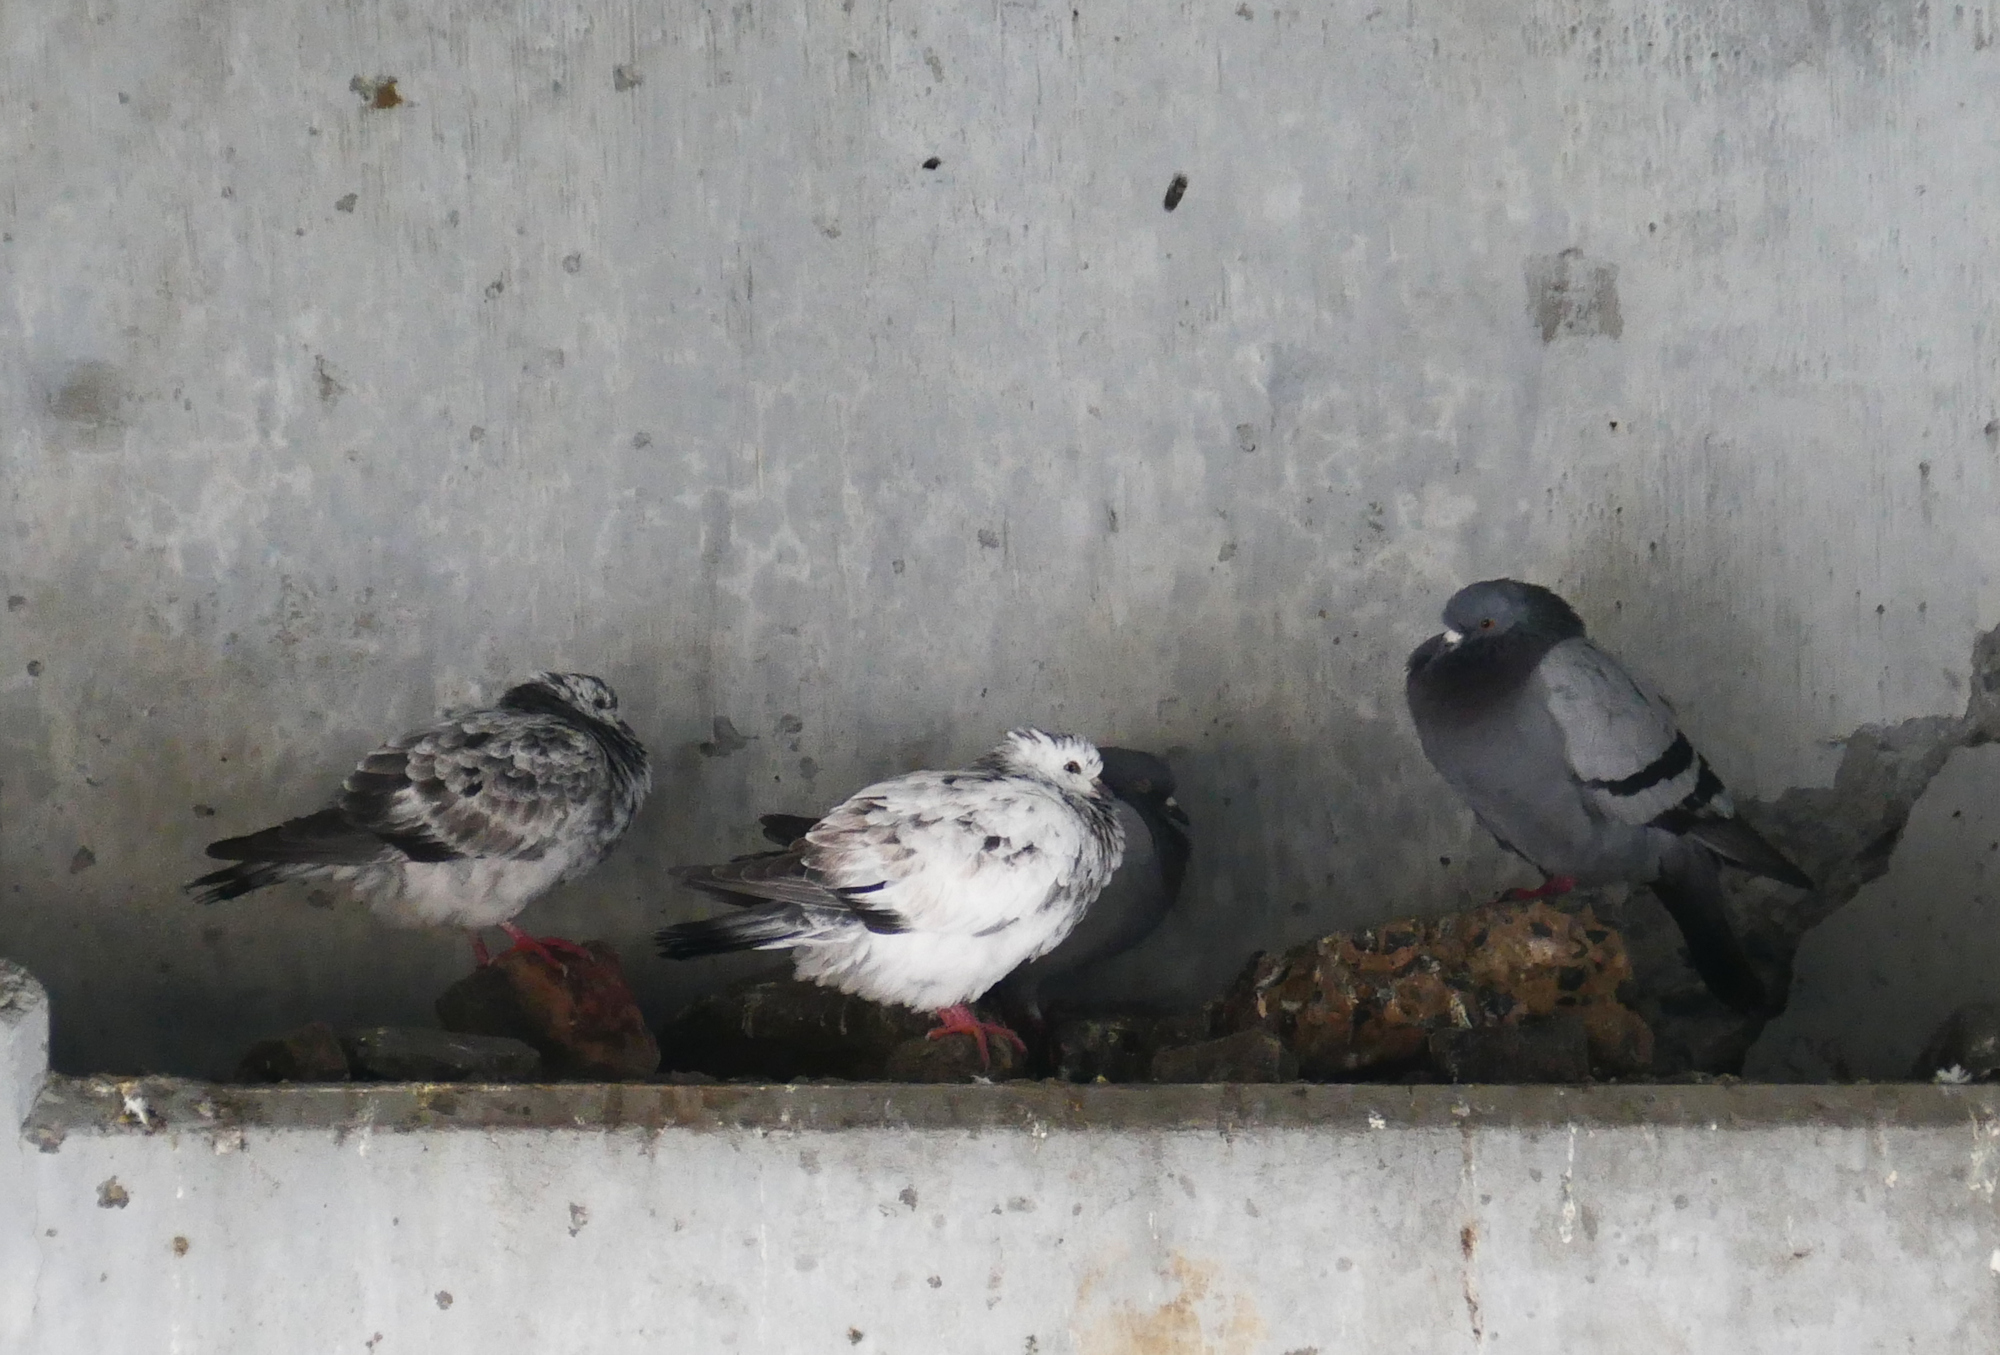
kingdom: Animalia
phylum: Chordata
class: Aves
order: Columbiformes
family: Columbidae
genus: Columba
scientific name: Columba livia
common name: Rock pigeon
